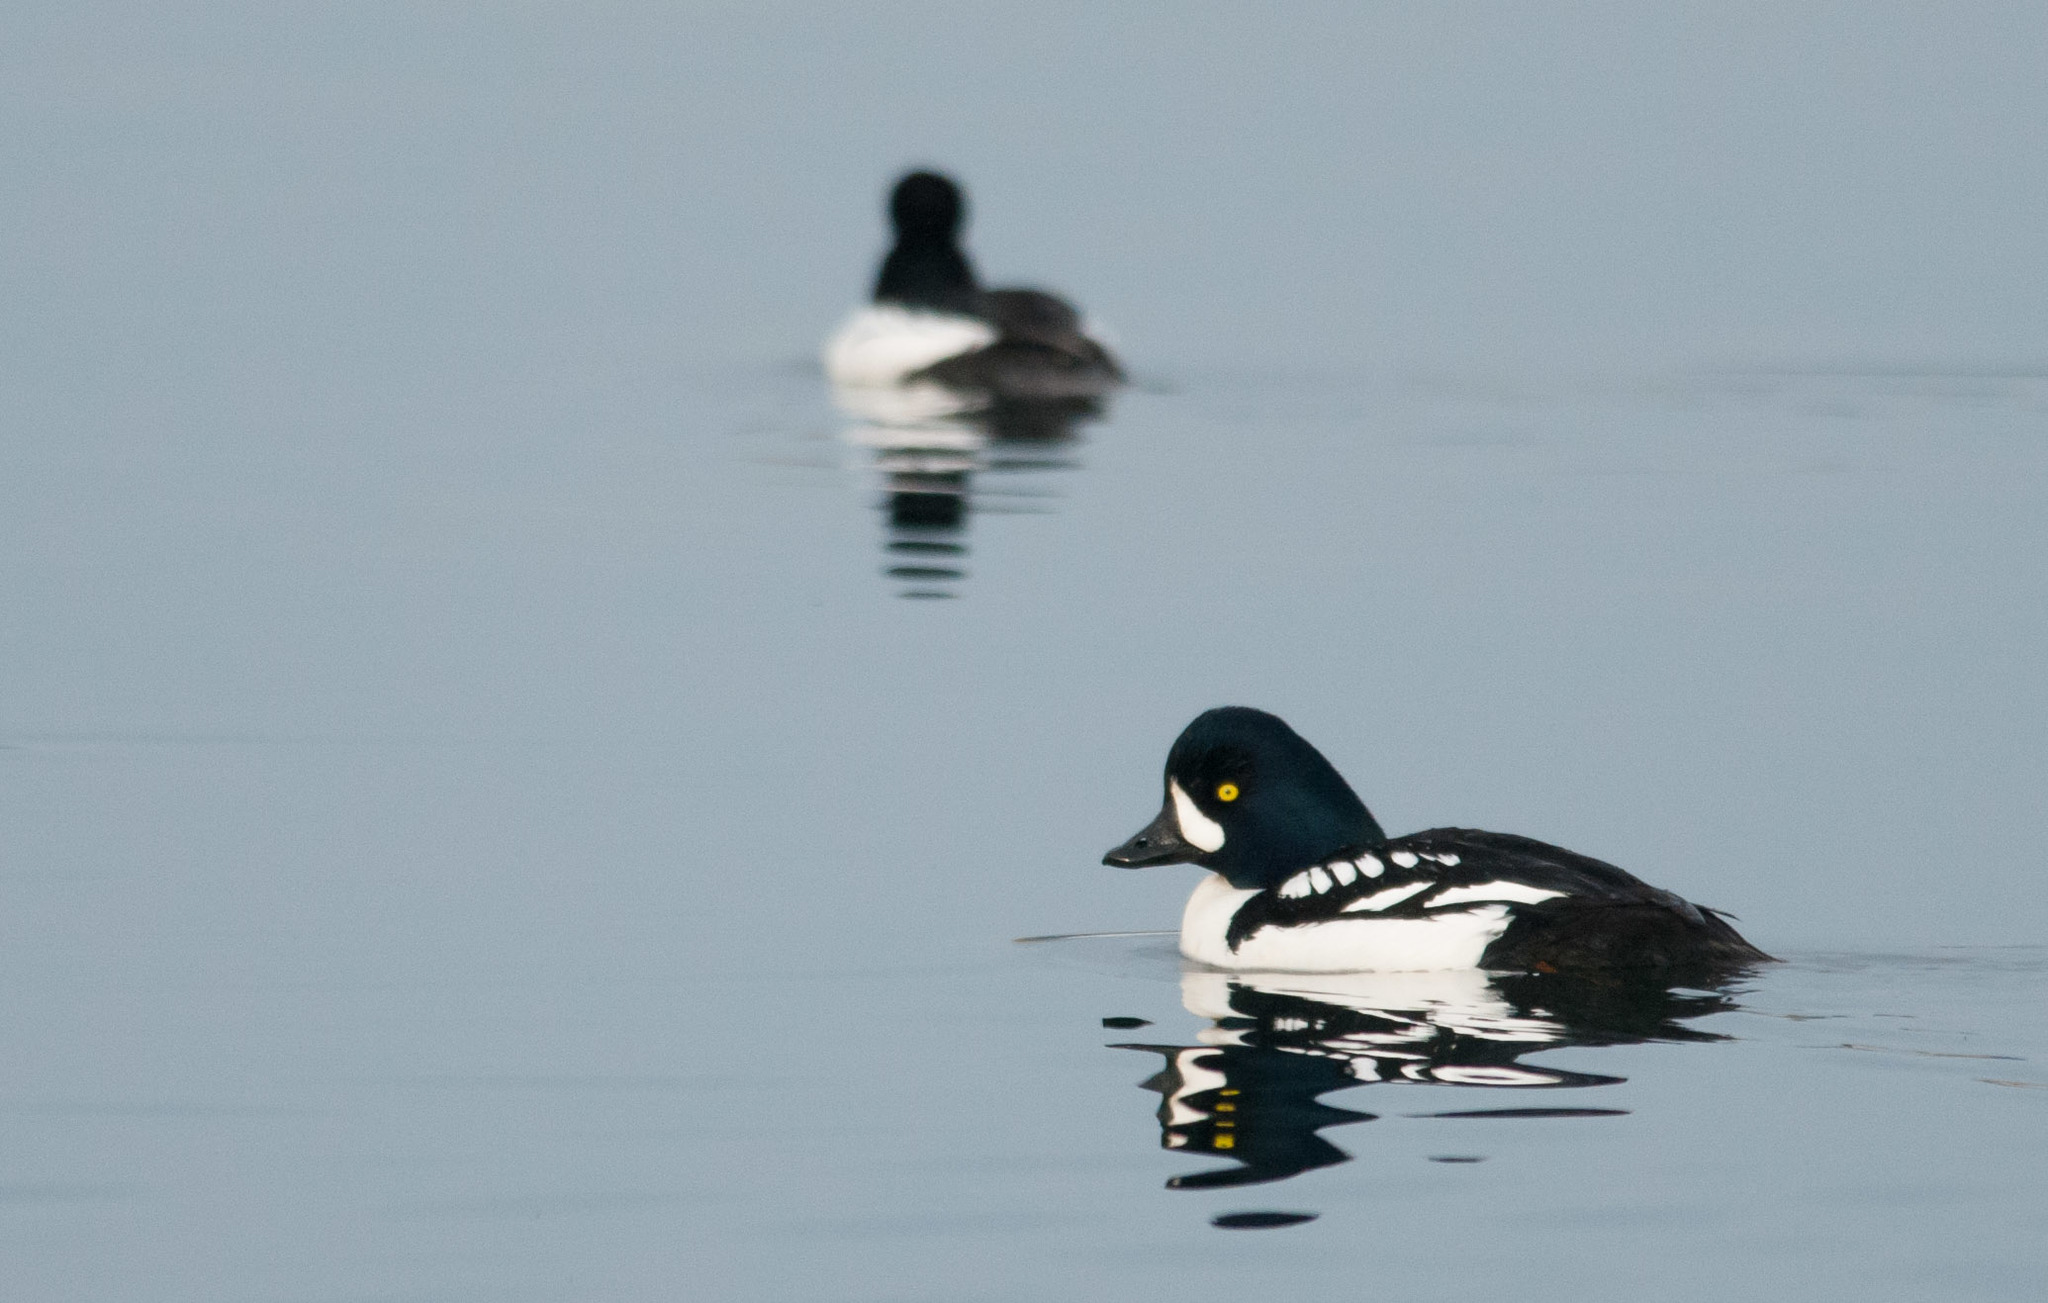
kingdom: Animalia
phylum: Chordata
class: Aves
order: Anseriformes
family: Anatidae
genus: Bucephala
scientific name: Bucephala islandica
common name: Barrow's goldeneye
